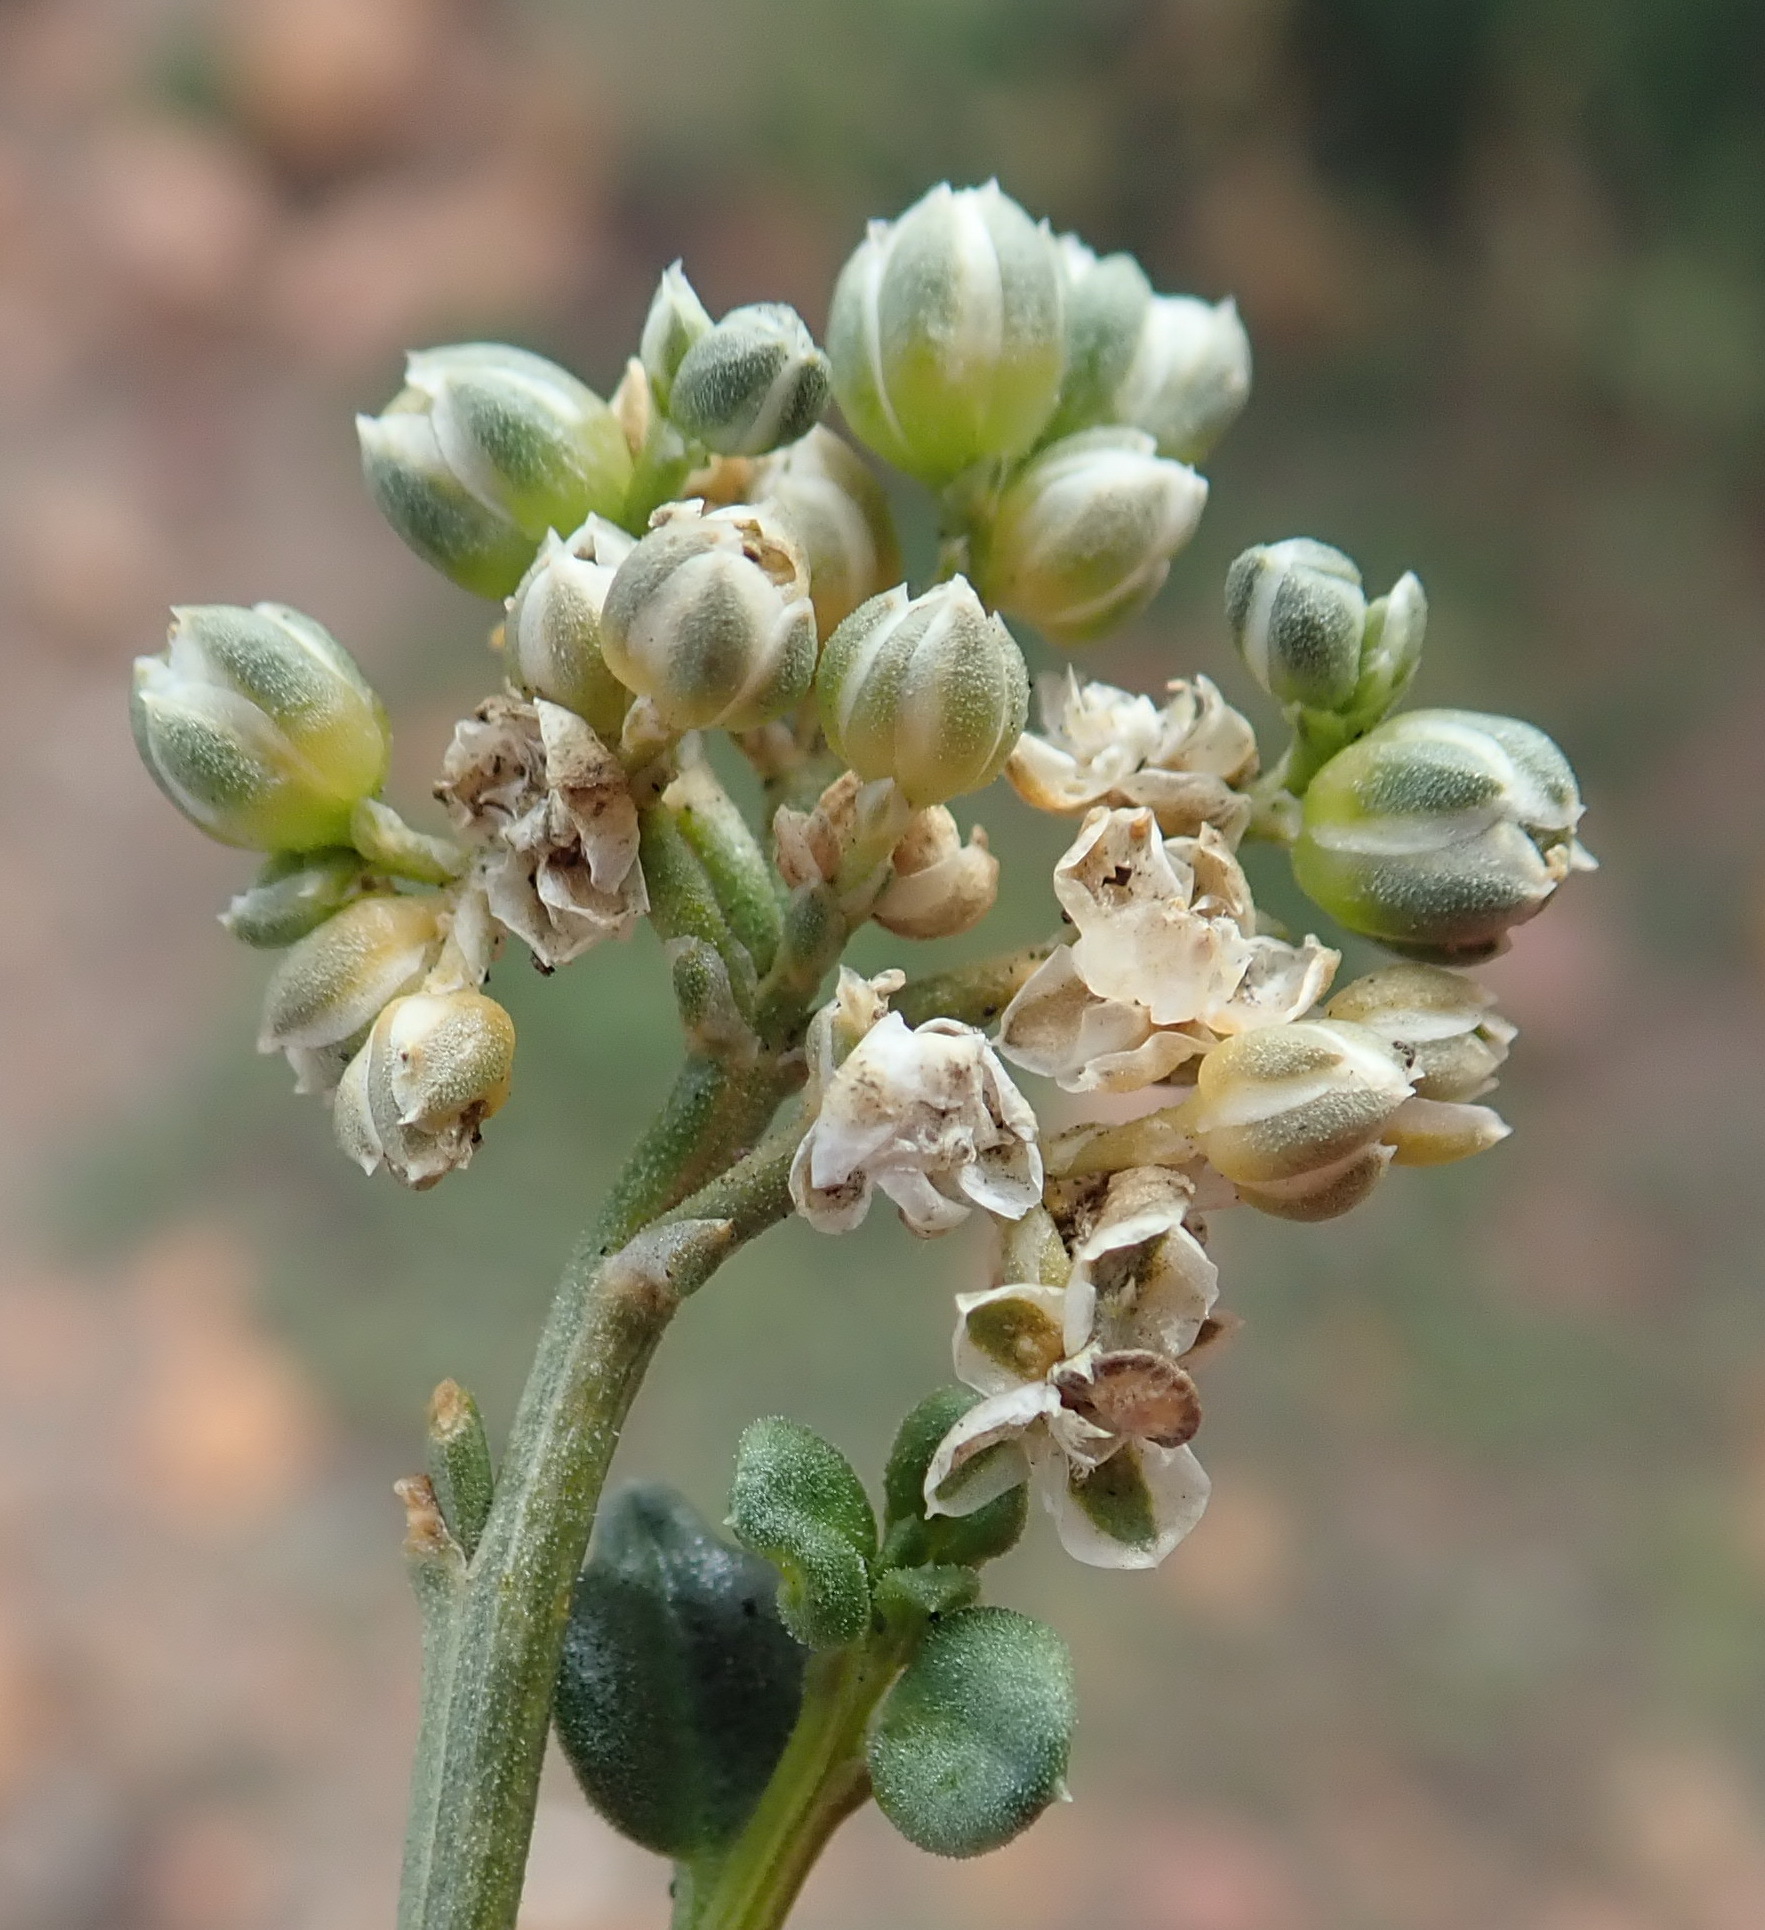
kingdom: Plantae
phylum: Tracheophyta
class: Magnoliopsida
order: Caryophyllales
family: Limeaceae
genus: Limeum
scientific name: Limeum telephioides
